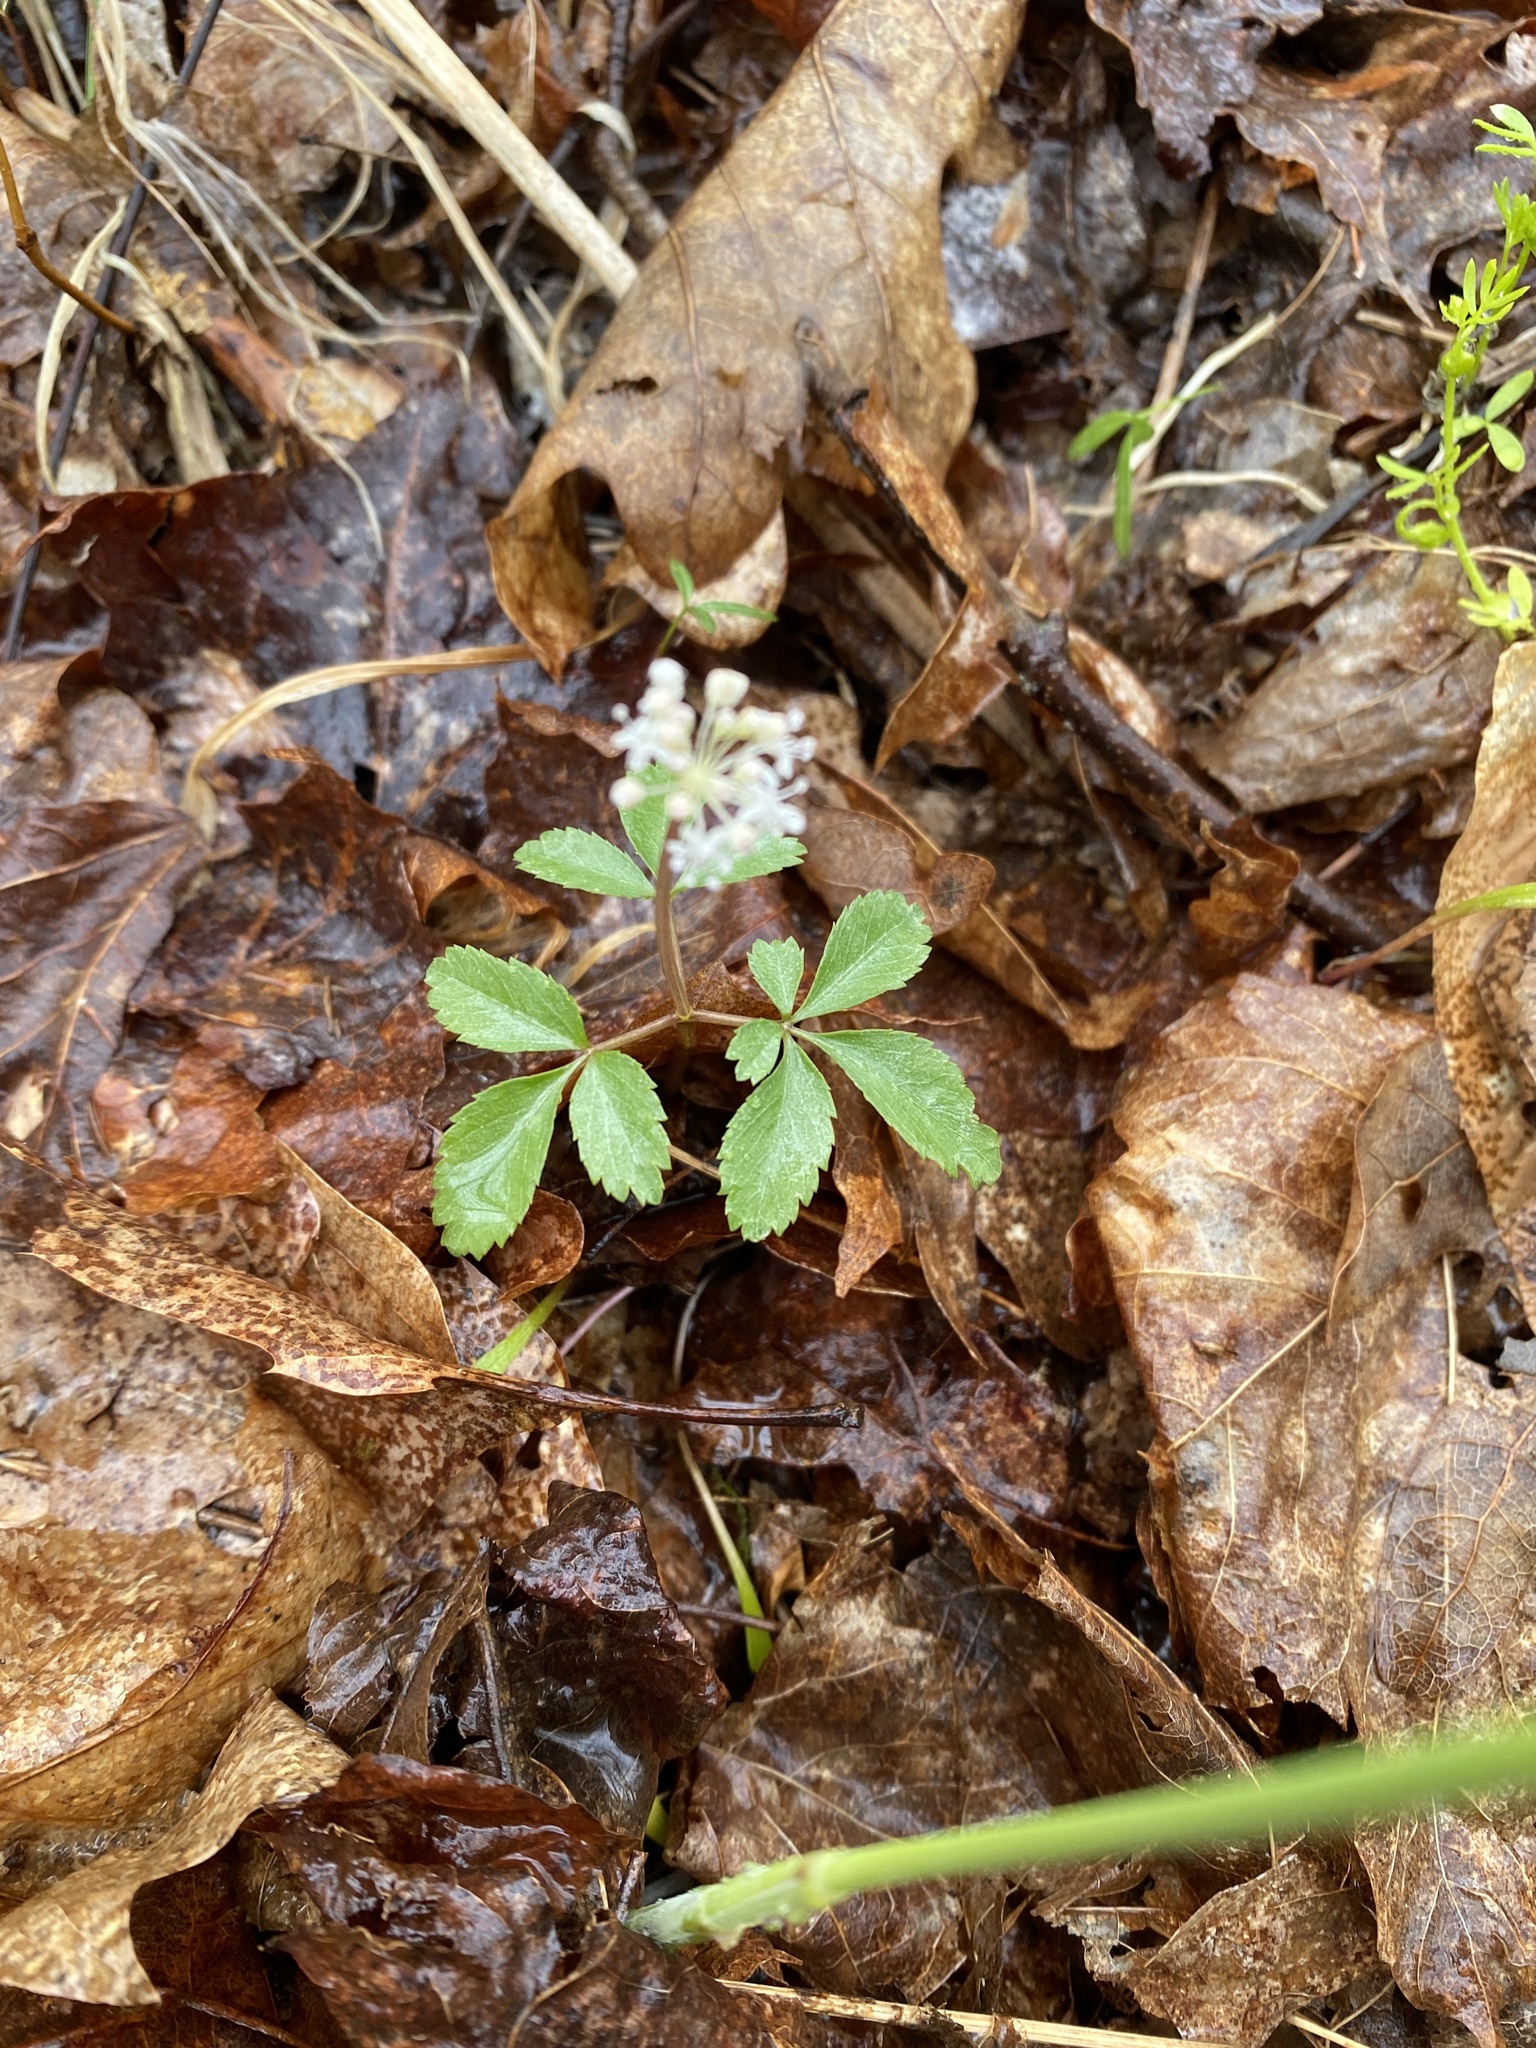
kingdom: Plantae
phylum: Tracheophyta
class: Magnoliopsida
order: Apiales
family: Araliaceae
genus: Panax
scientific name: Panax trifolius
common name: Dwarf ginseng
